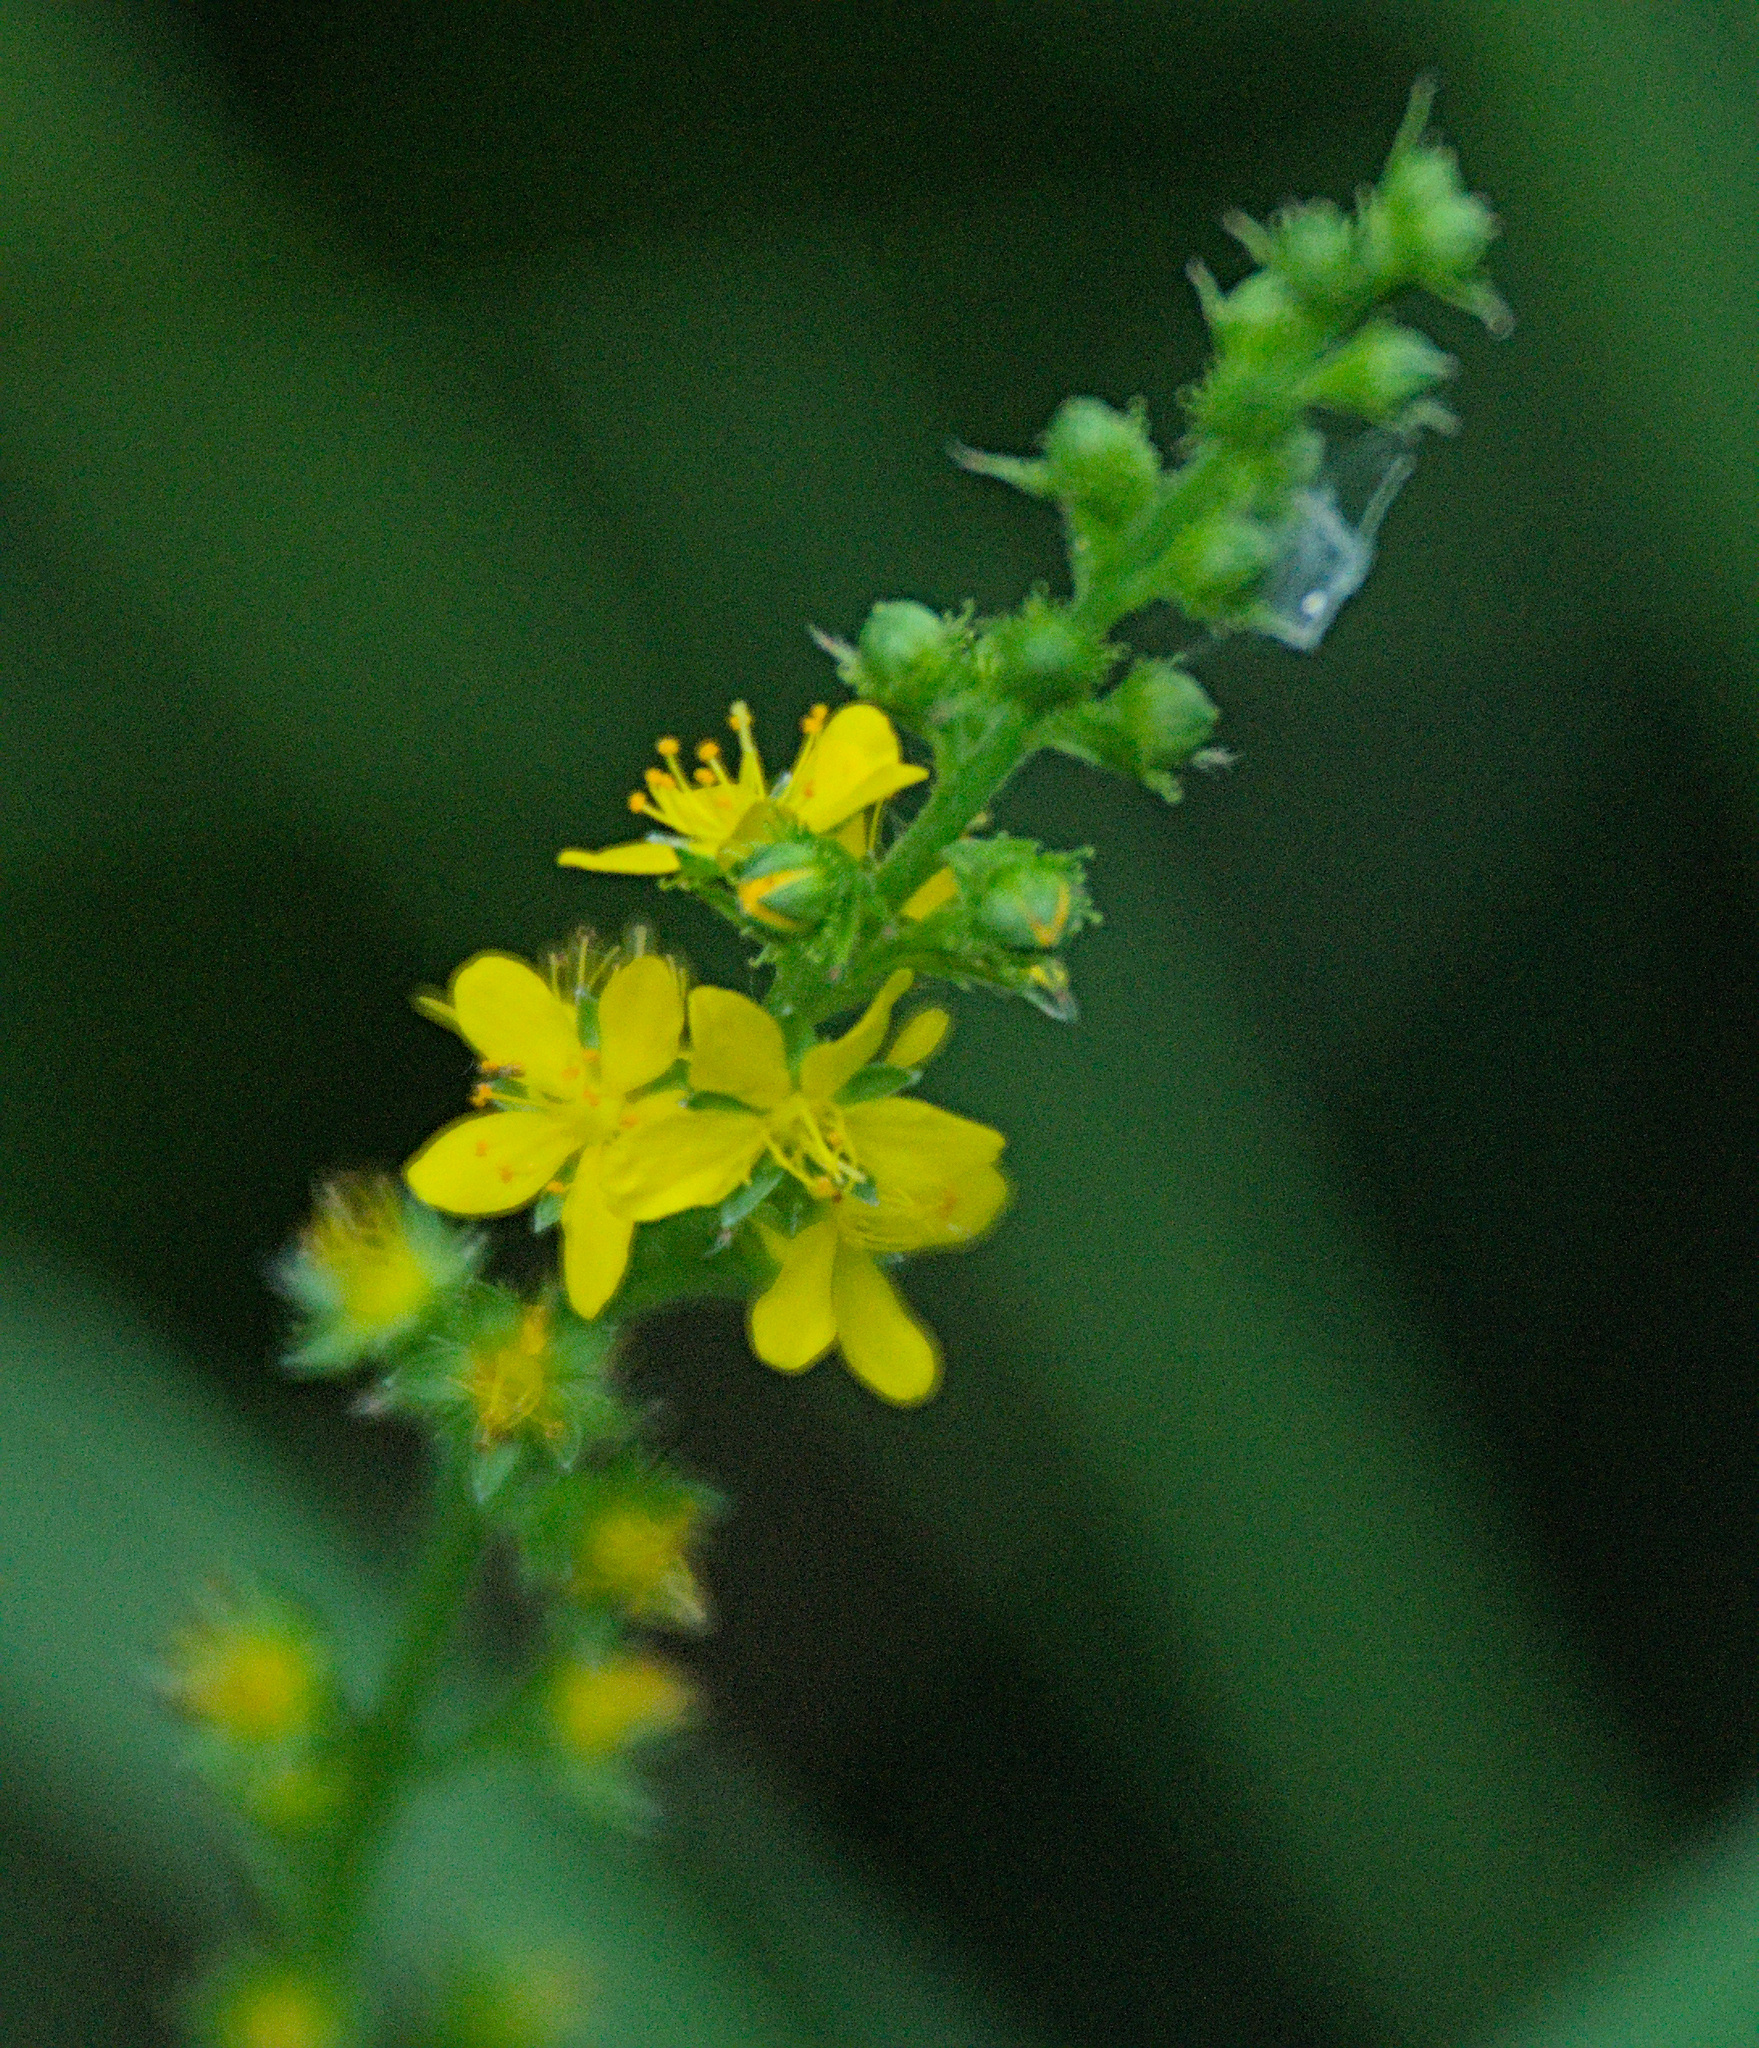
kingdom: Plantae
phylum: Tracheophyta
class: Magnoliopsida
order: Rosales
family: Rosaceae
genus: Agrimonia
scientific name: Agrimonia pilosa
